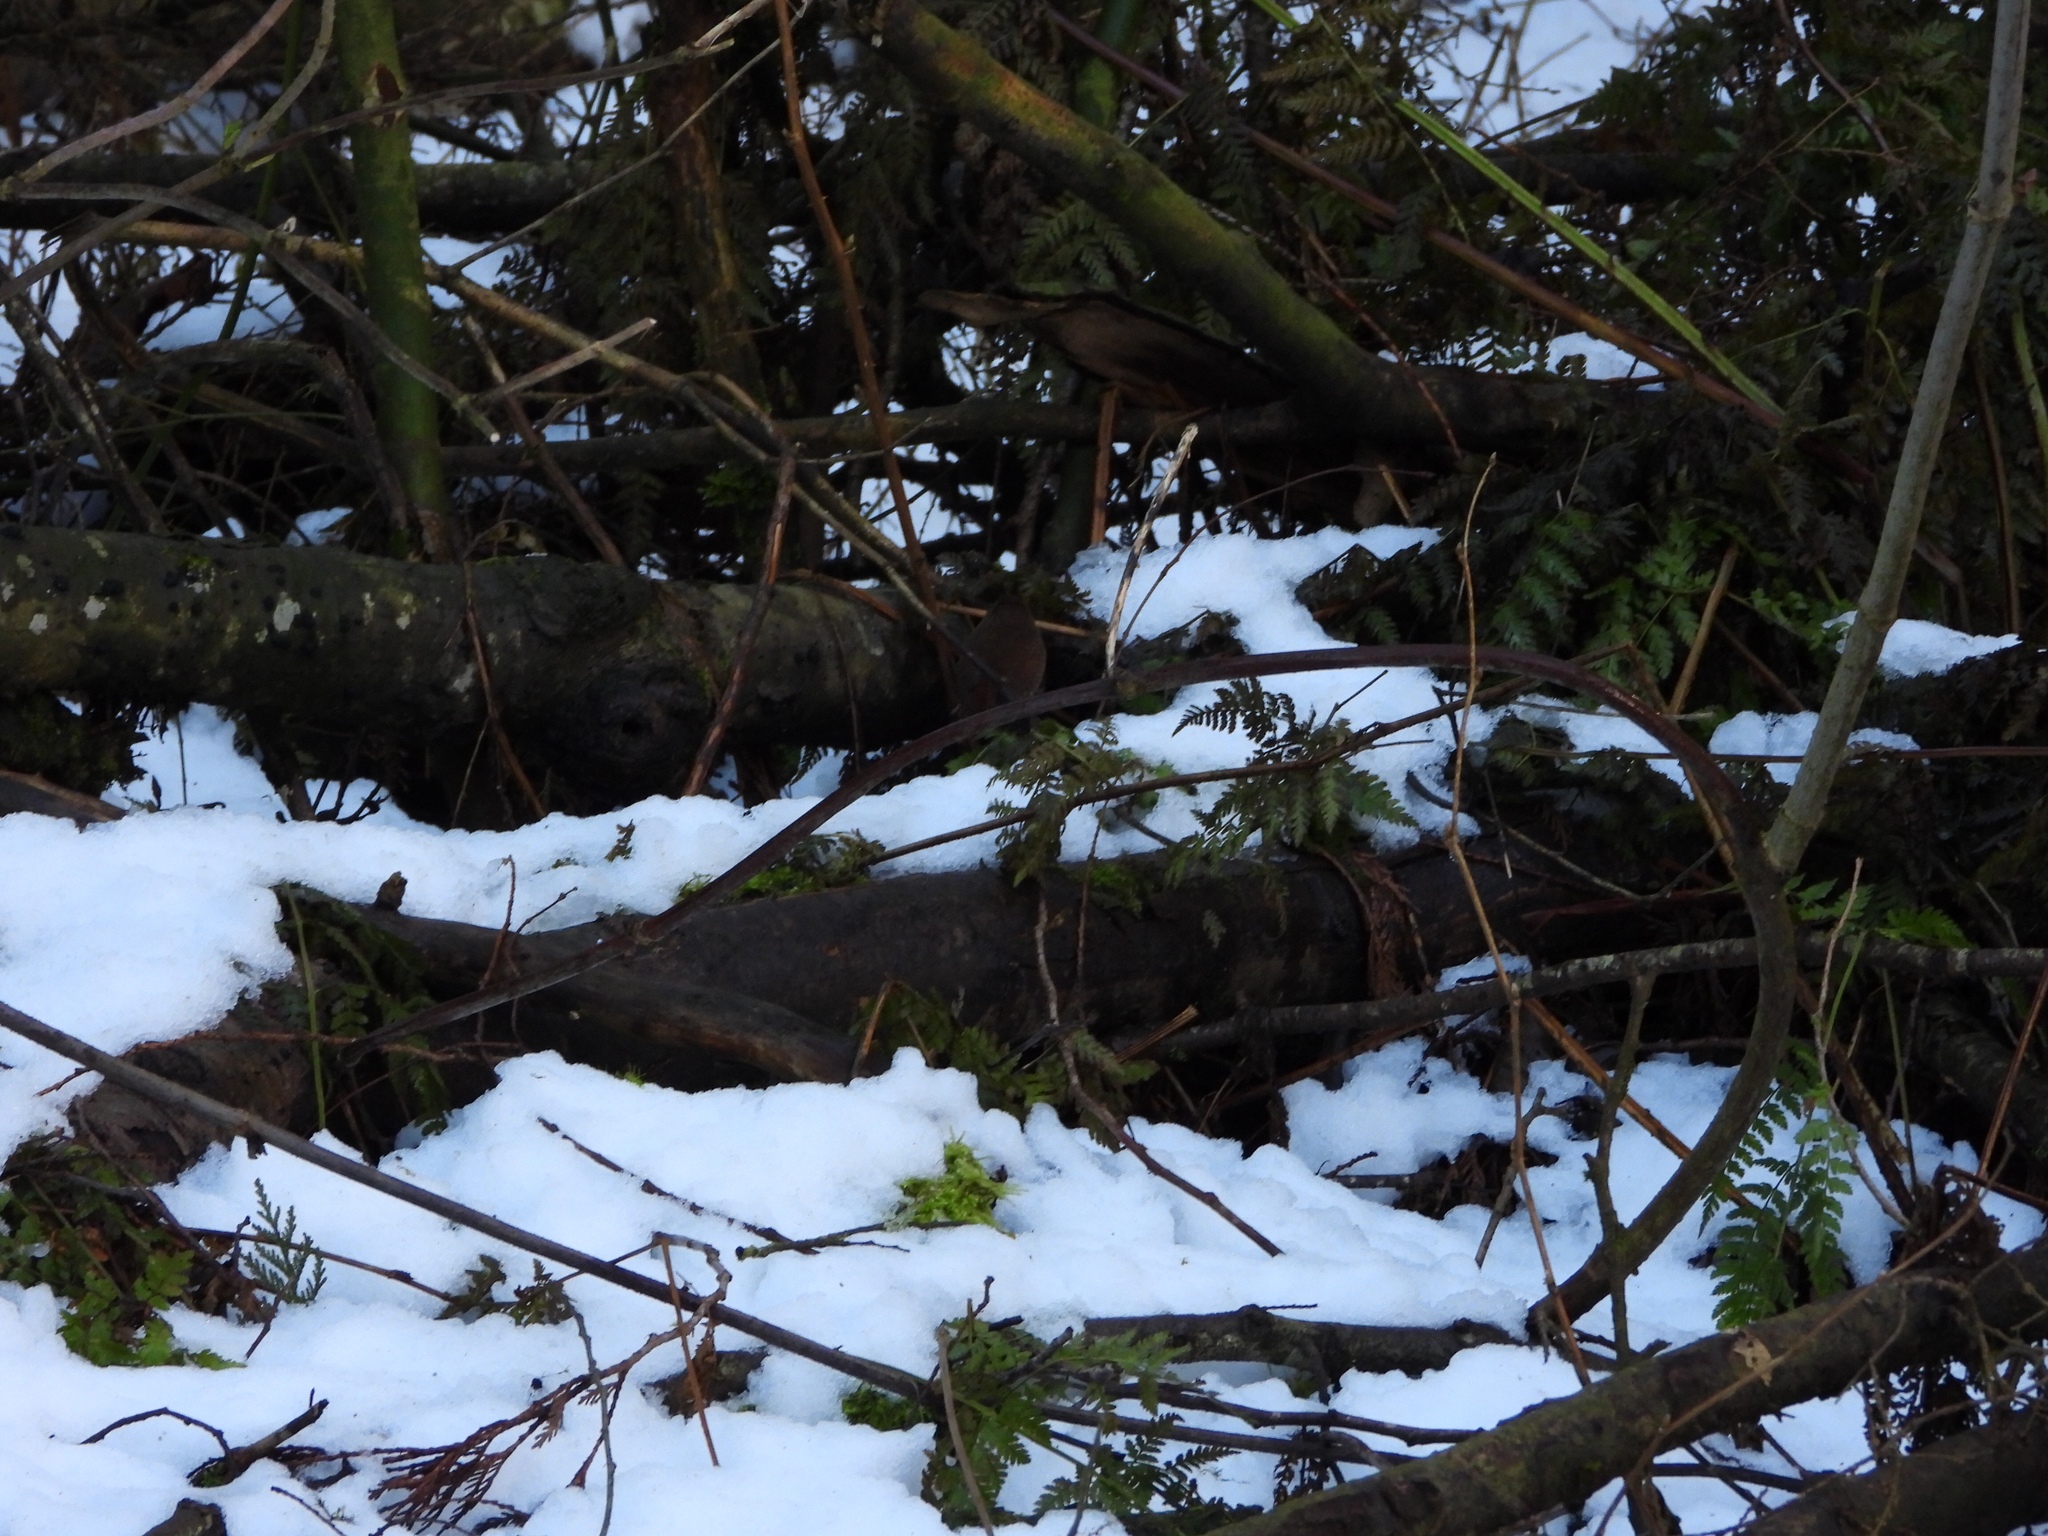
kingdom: Animalia
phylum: Chordata
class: Aves
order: Passeriformes
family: Troglodytidae
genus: Troglodytes
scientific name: Troglodytes pacificus
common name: Pacific wren
